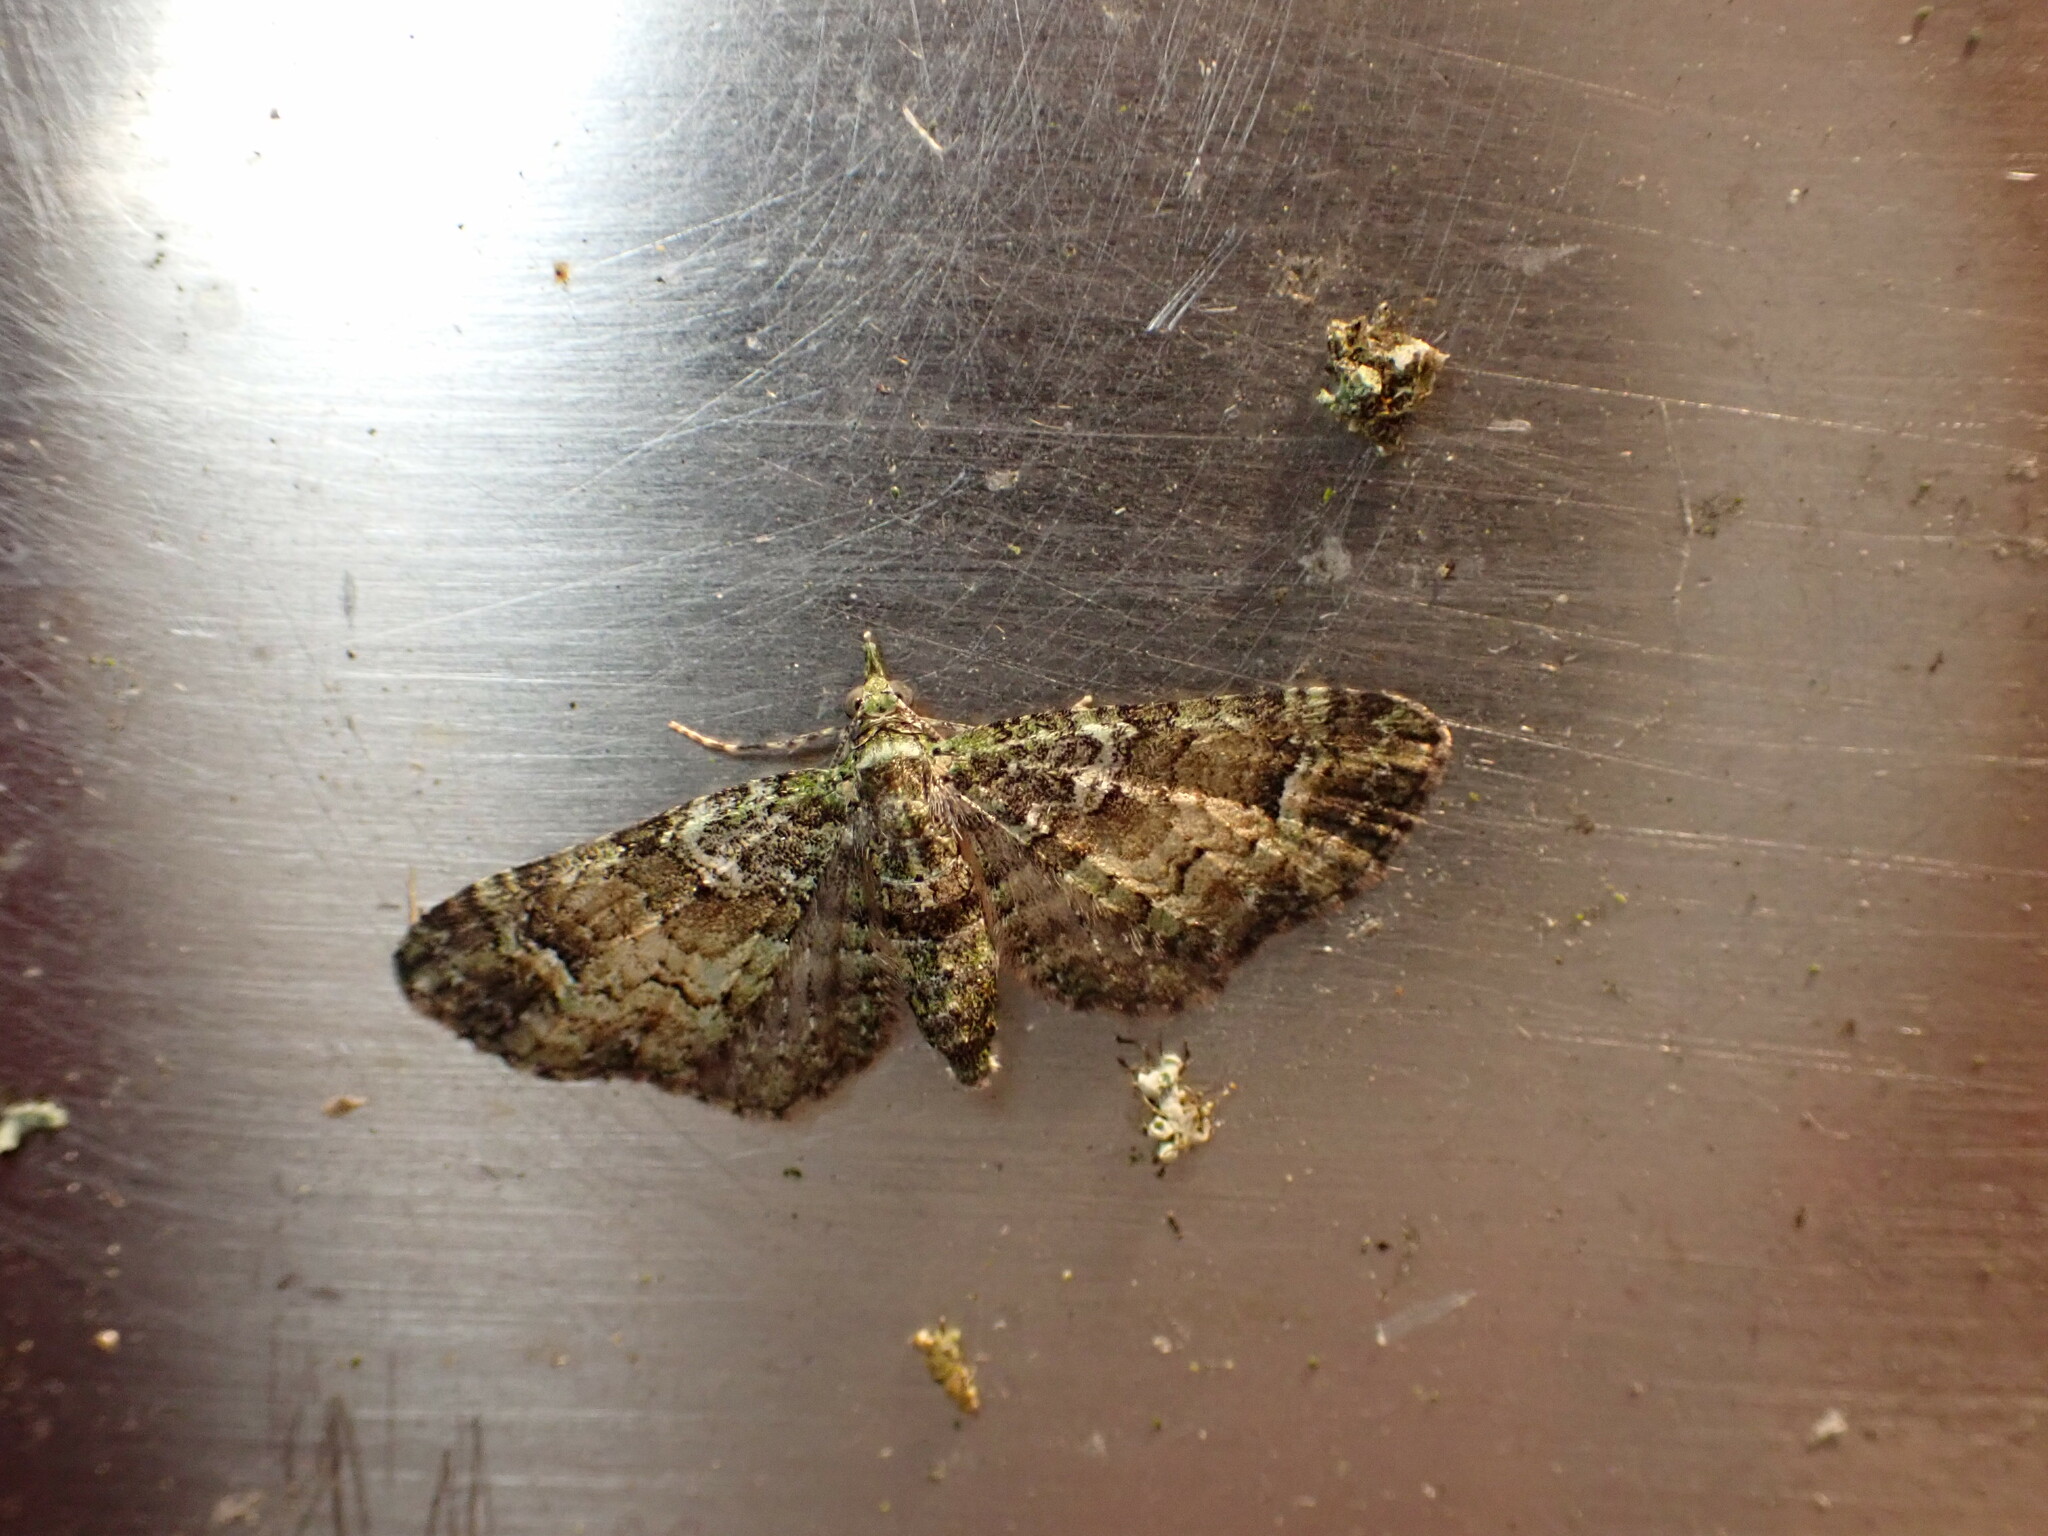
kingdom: Animalia
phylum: Arthropoda
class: Insecta
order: Lepidoptera
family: Geometridae
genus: Idaea
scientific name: Idaea mutanda
